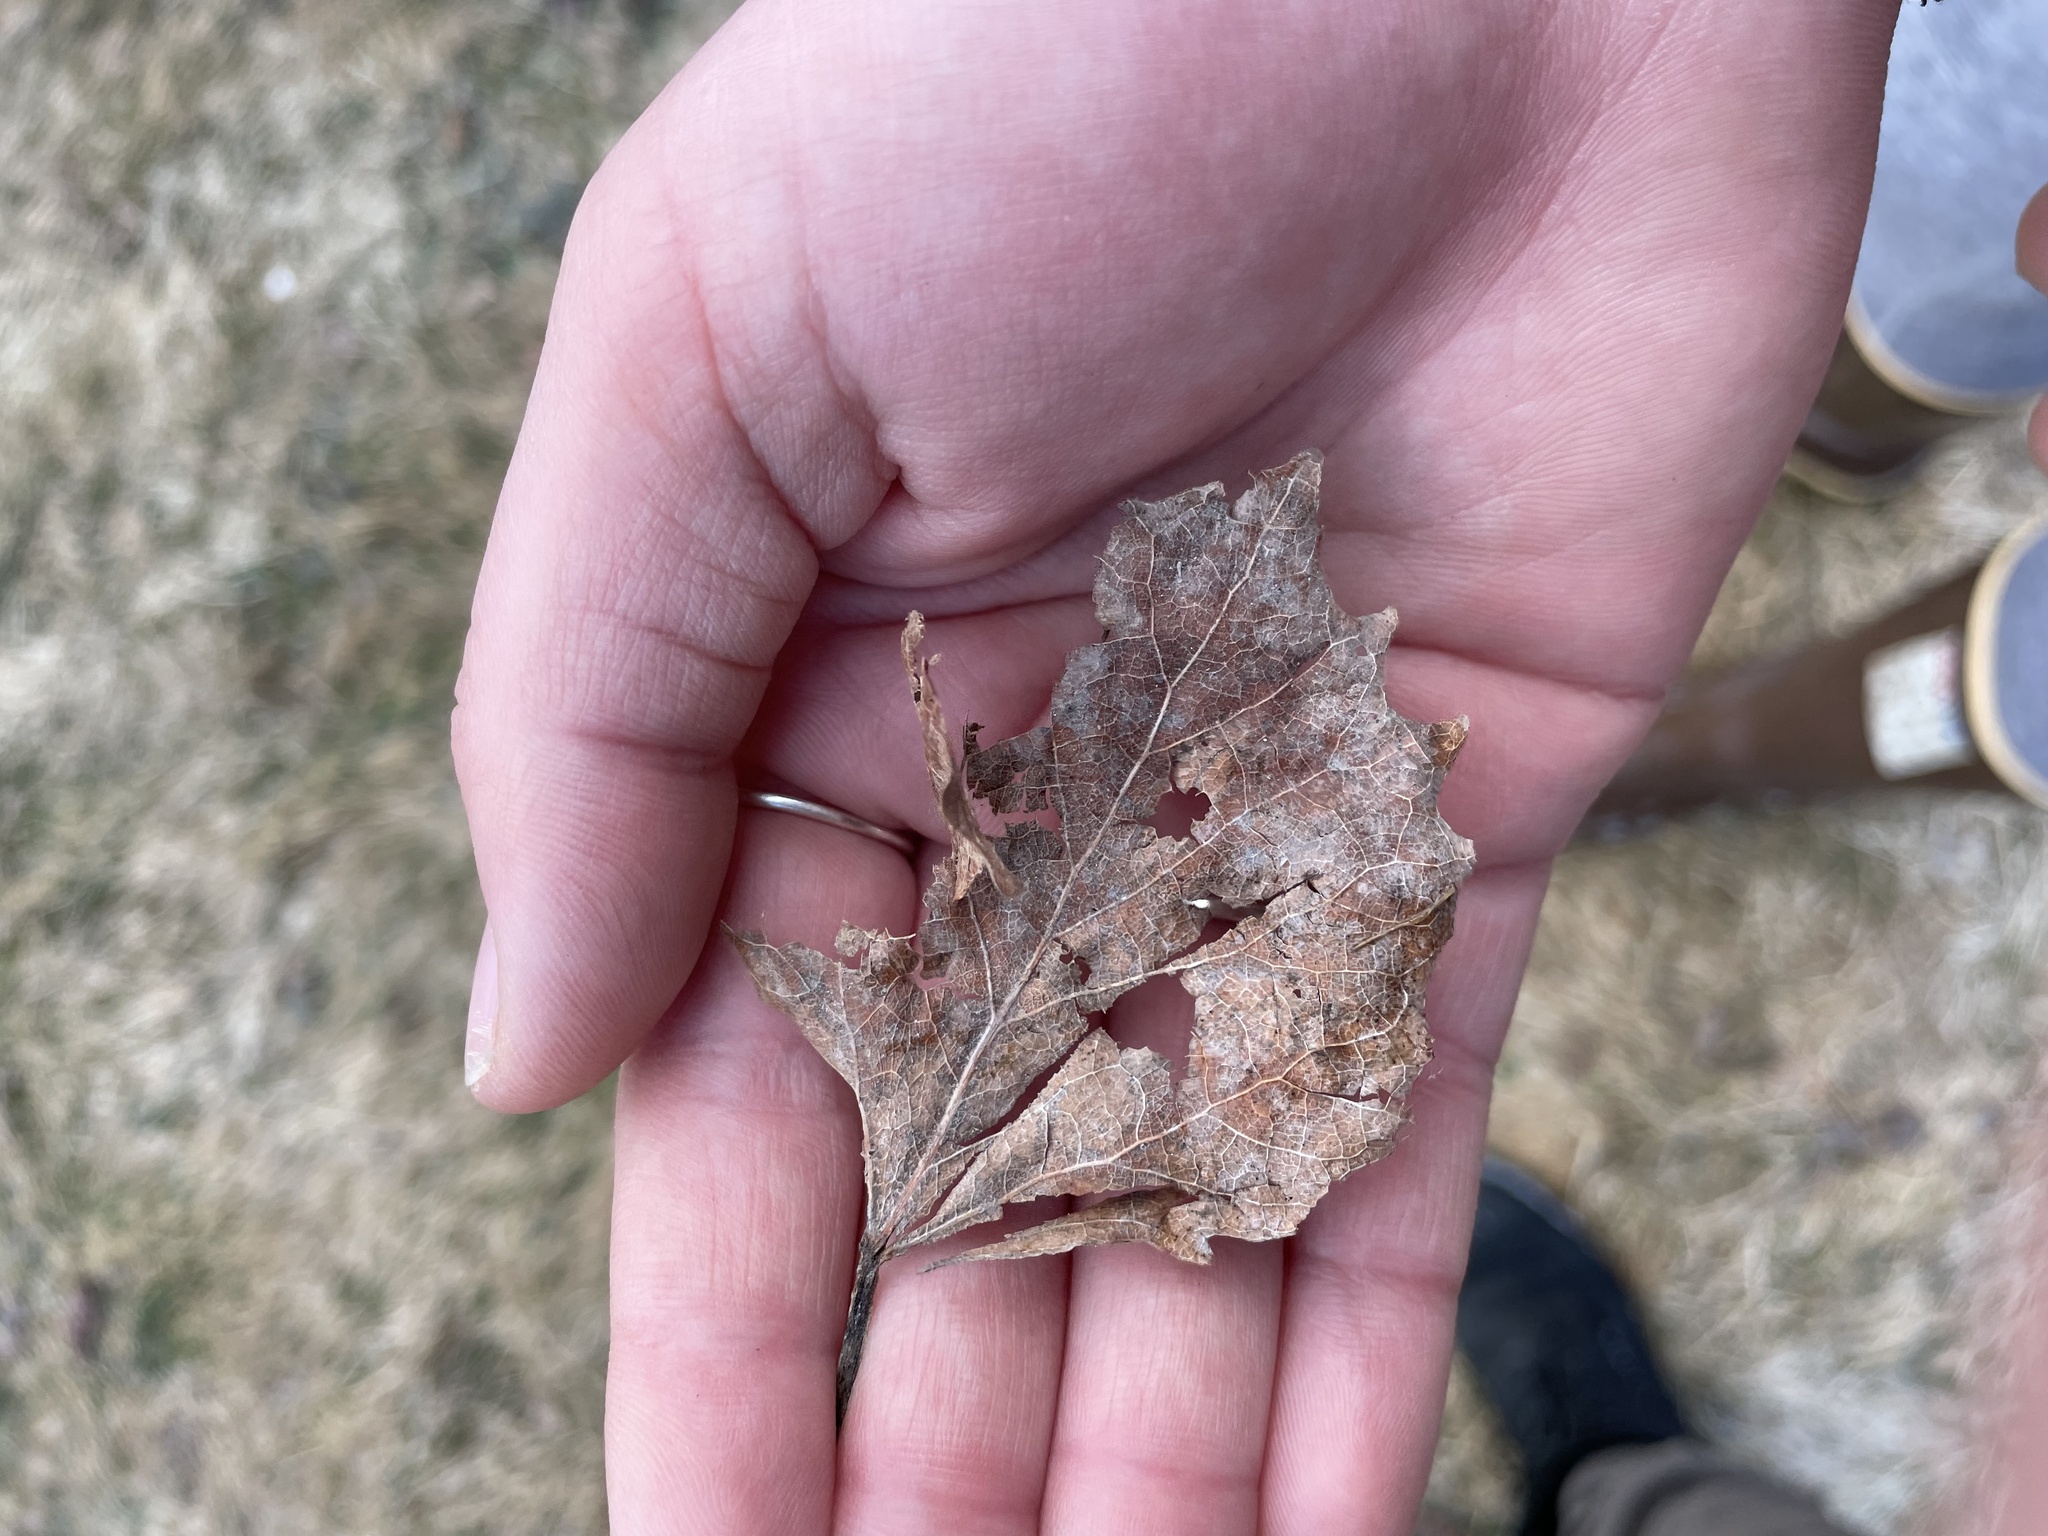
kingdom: Plantae
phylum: Tracheophyta
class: Magnoliopsida
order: Malpighiales
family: Salicaceae
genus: Populus
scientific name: Populus grandidentata
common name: Bigtooth aspen
